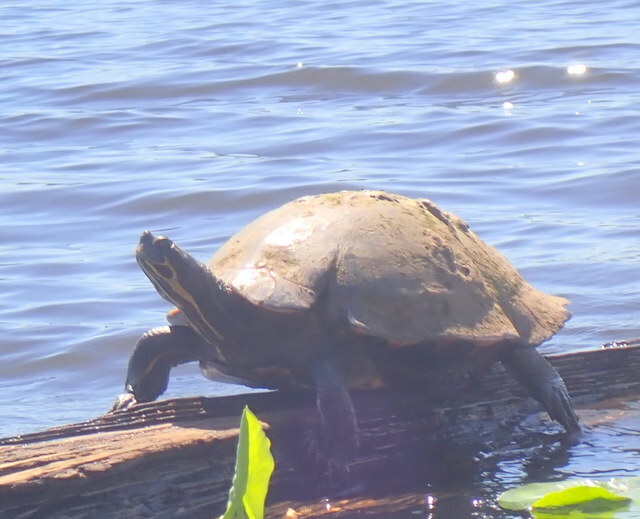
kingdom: Animalia
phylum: Chordata
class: Testudines
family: Emydidae
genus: Pseudemys
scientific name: Pseudemys concinna
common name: Eastern river cooter
